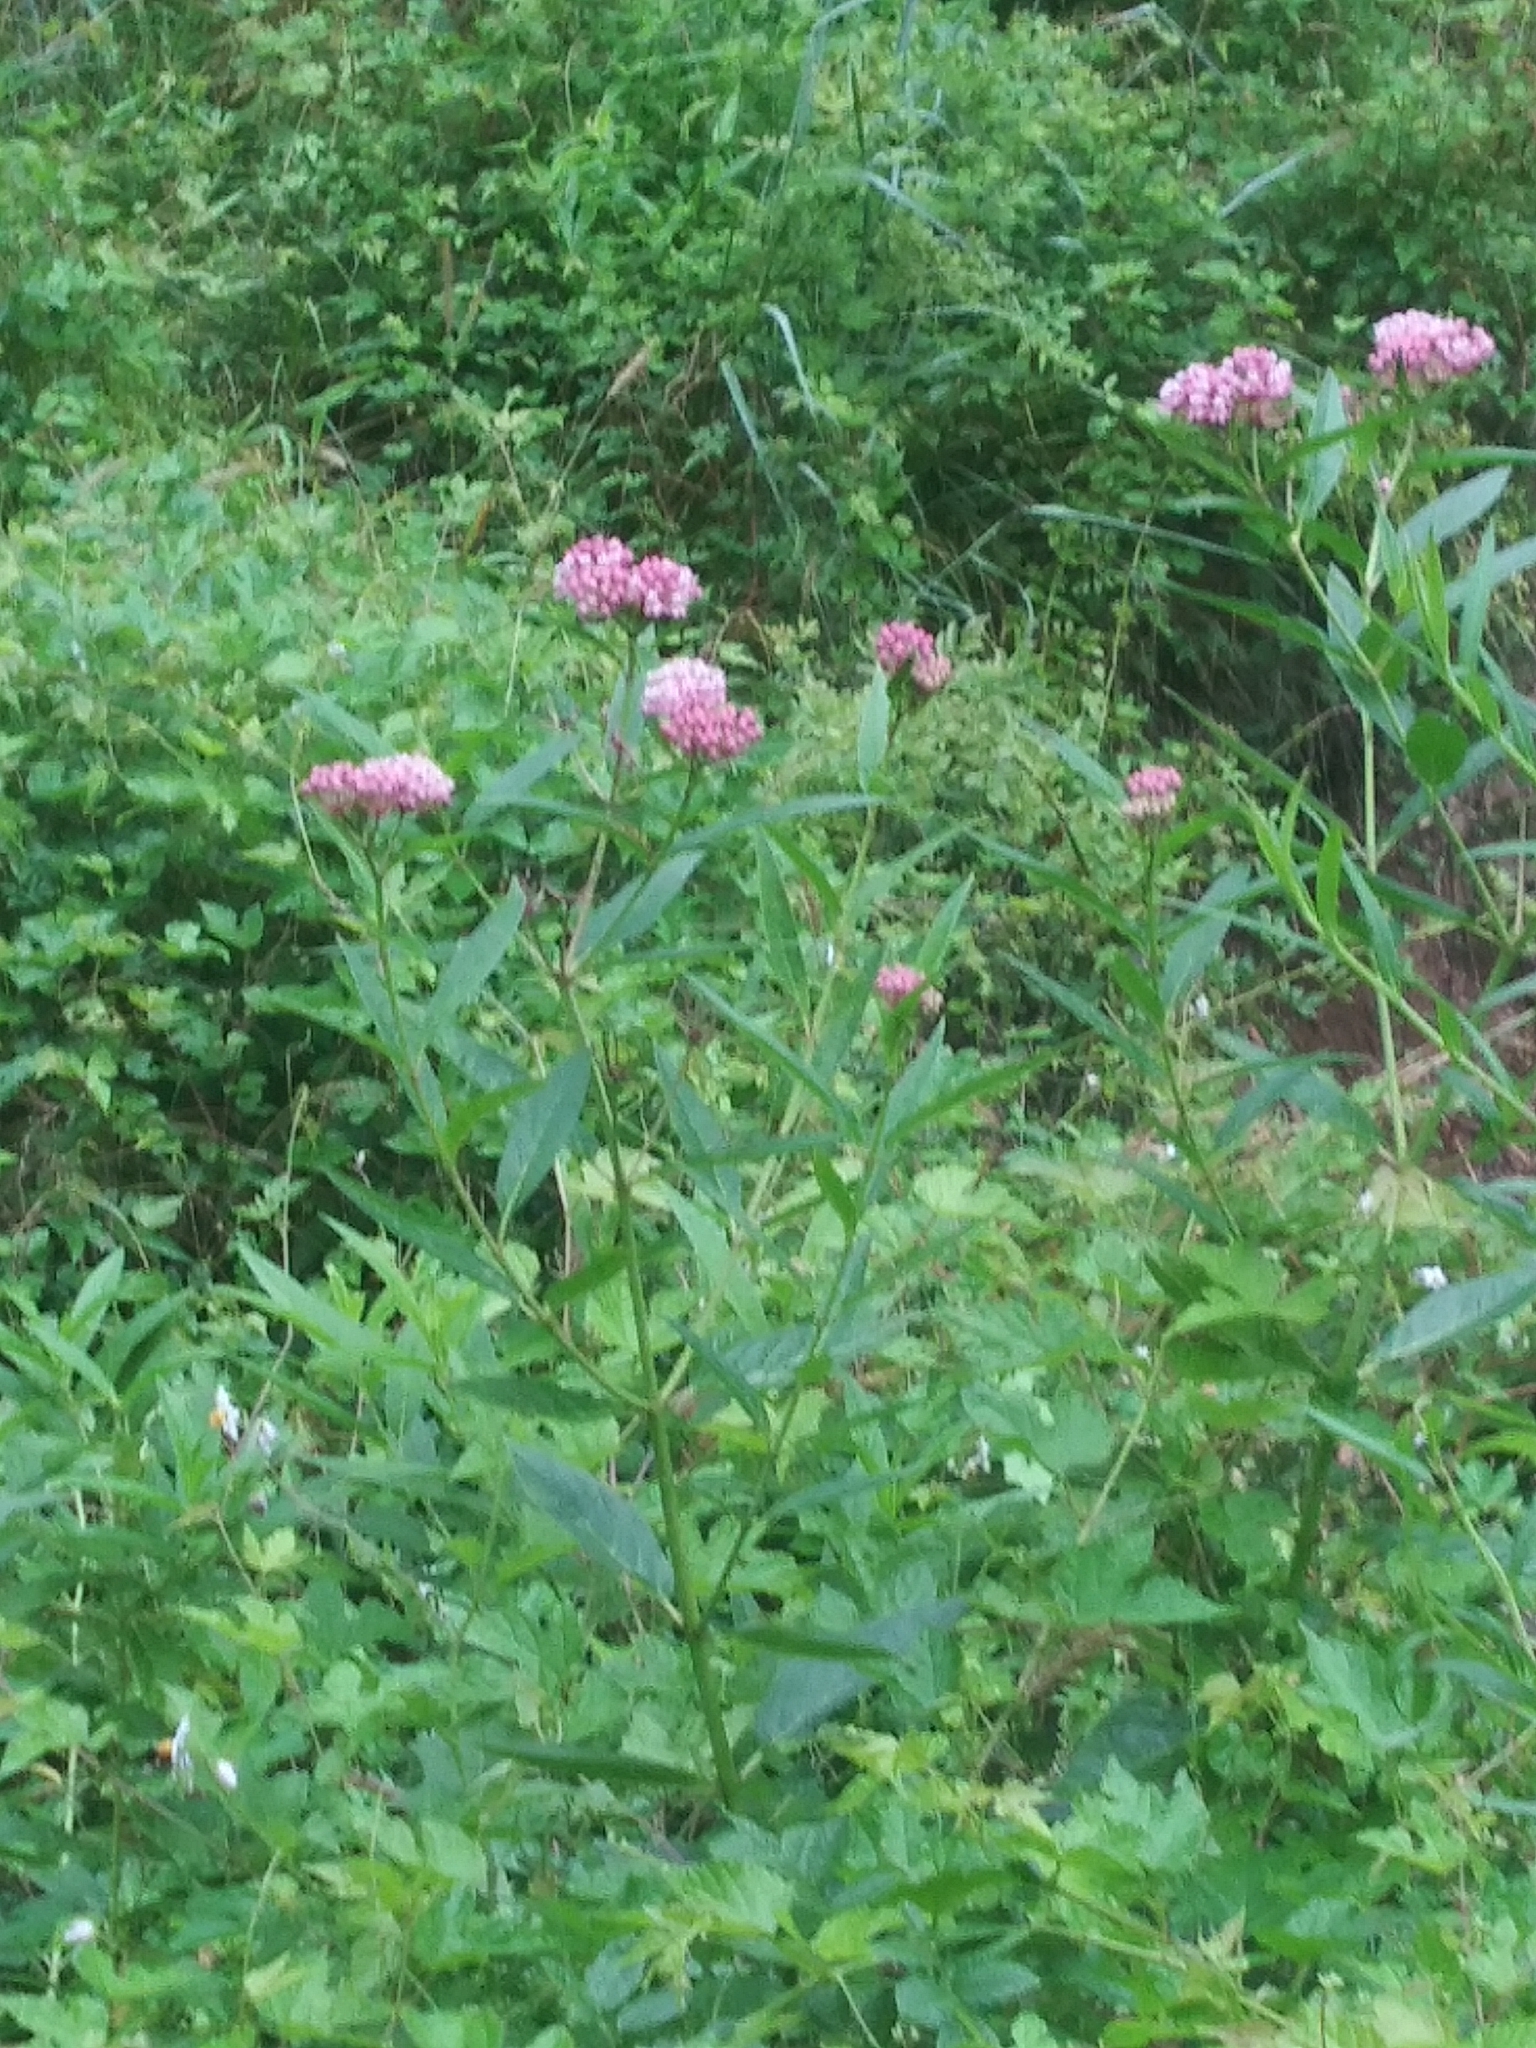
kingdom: Plantae
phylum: Tracheophyta
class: Magnoliopsida
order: Gentianales
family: Apocynaceae
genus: Asclepias
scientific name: Asclepias incarnata
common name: Swamp milkweed
